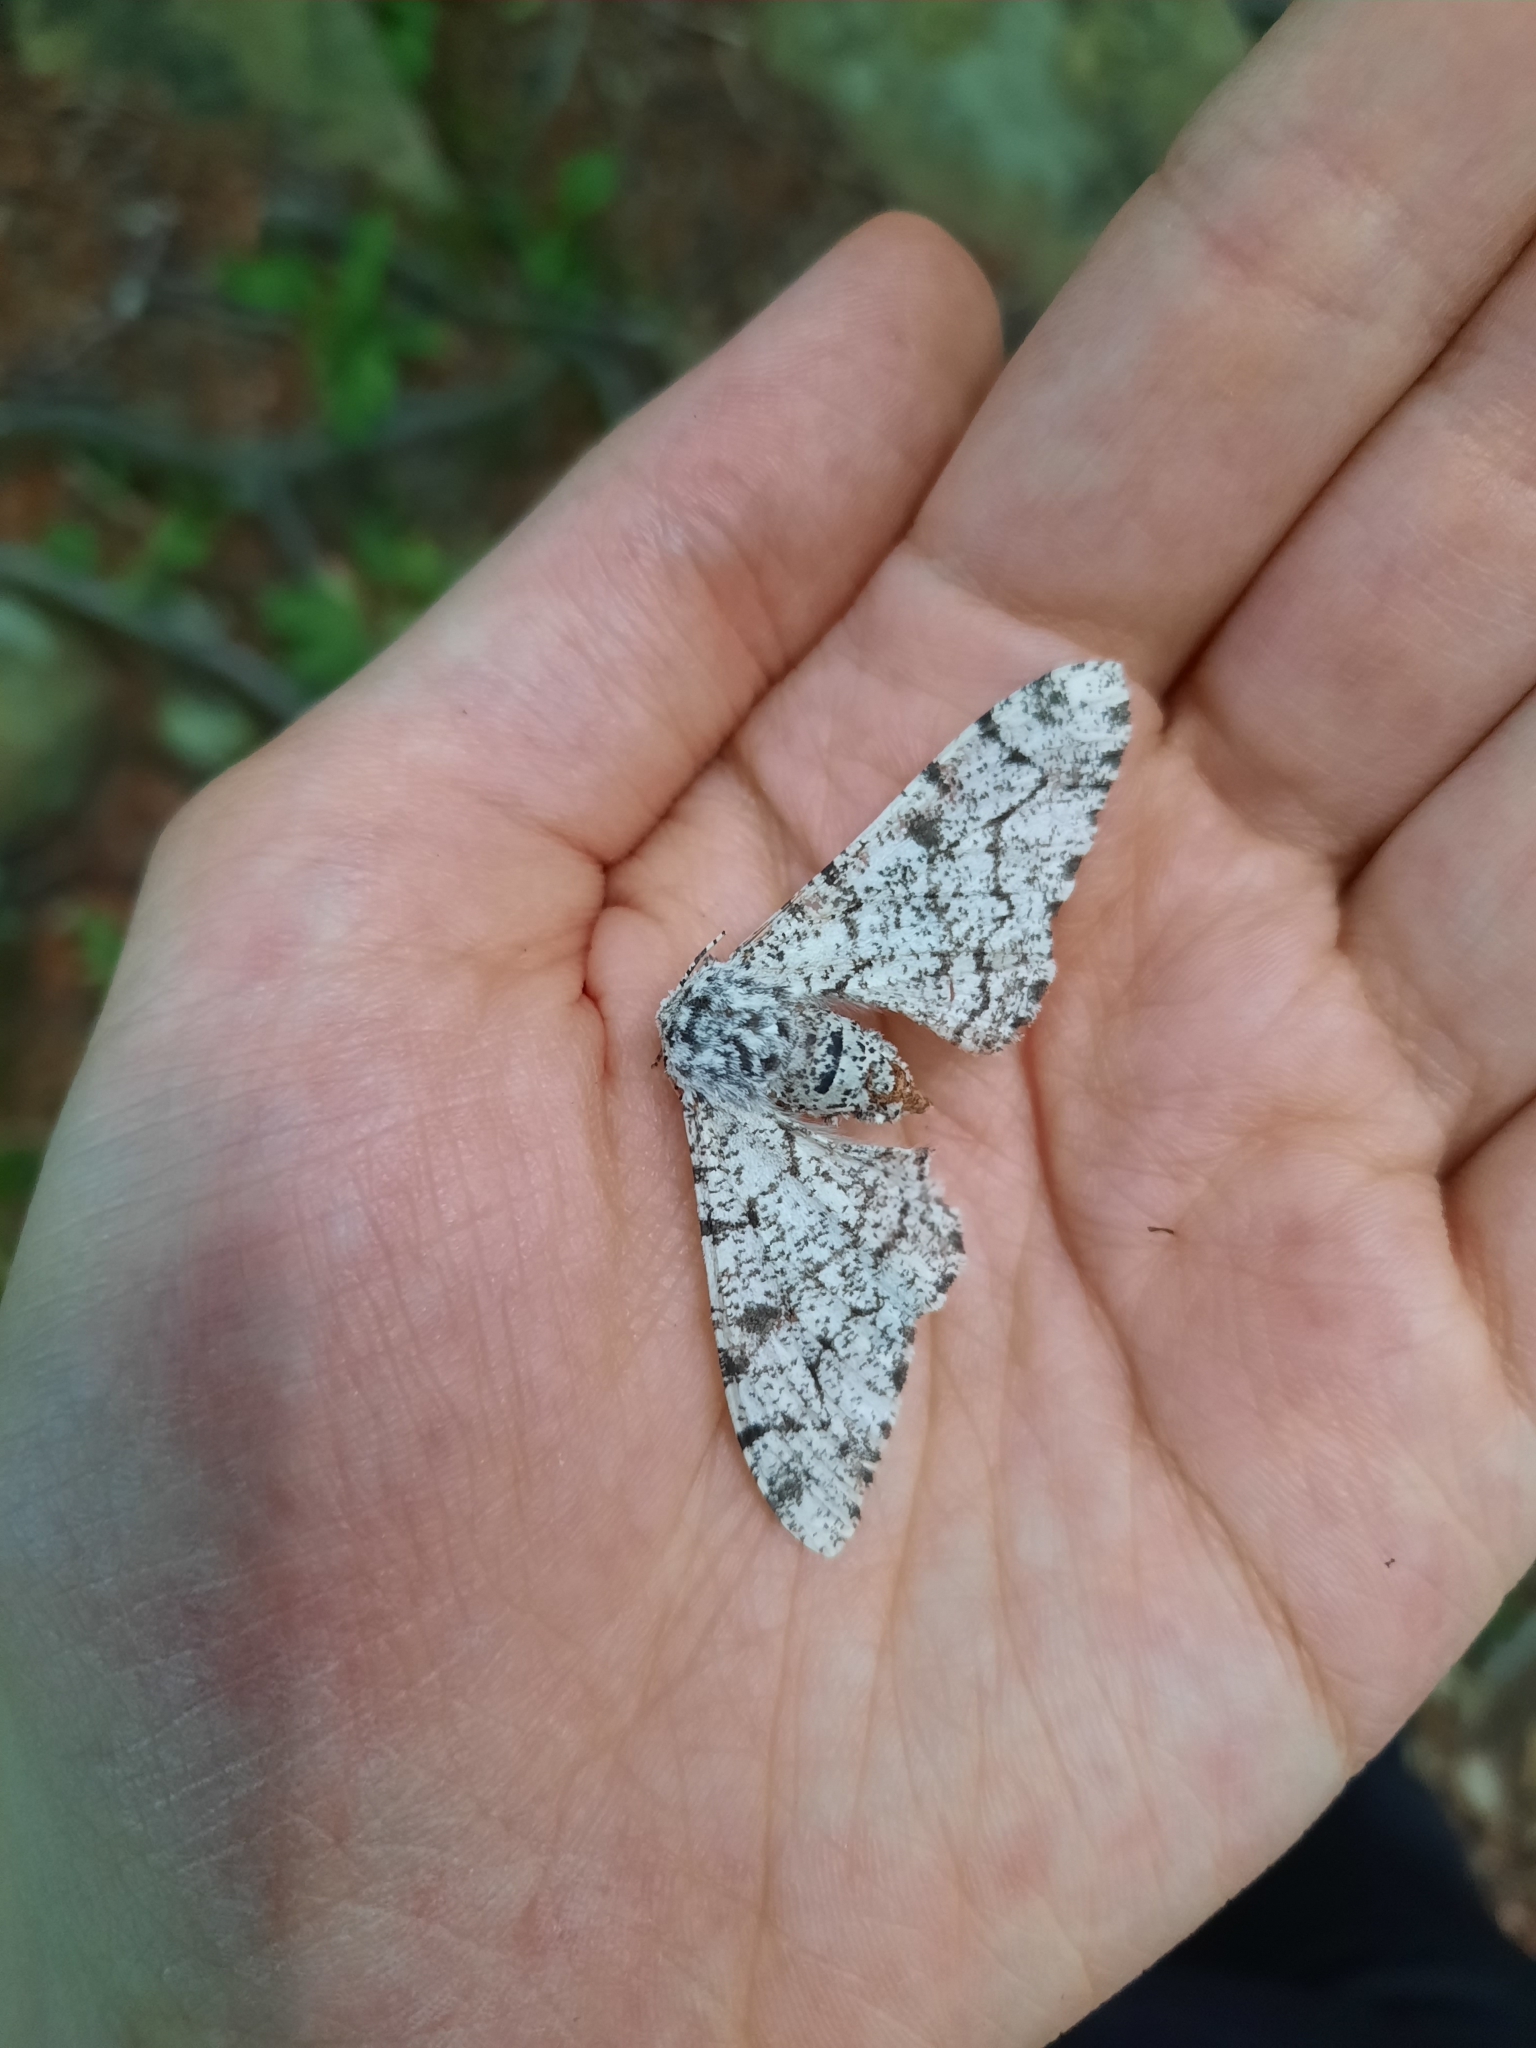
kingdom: Animalia
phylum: Arthropoda
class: Insecta
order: Lepidoptera
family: Geometridae
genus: Biston
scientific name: Biston betularia
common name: Peppered moth
